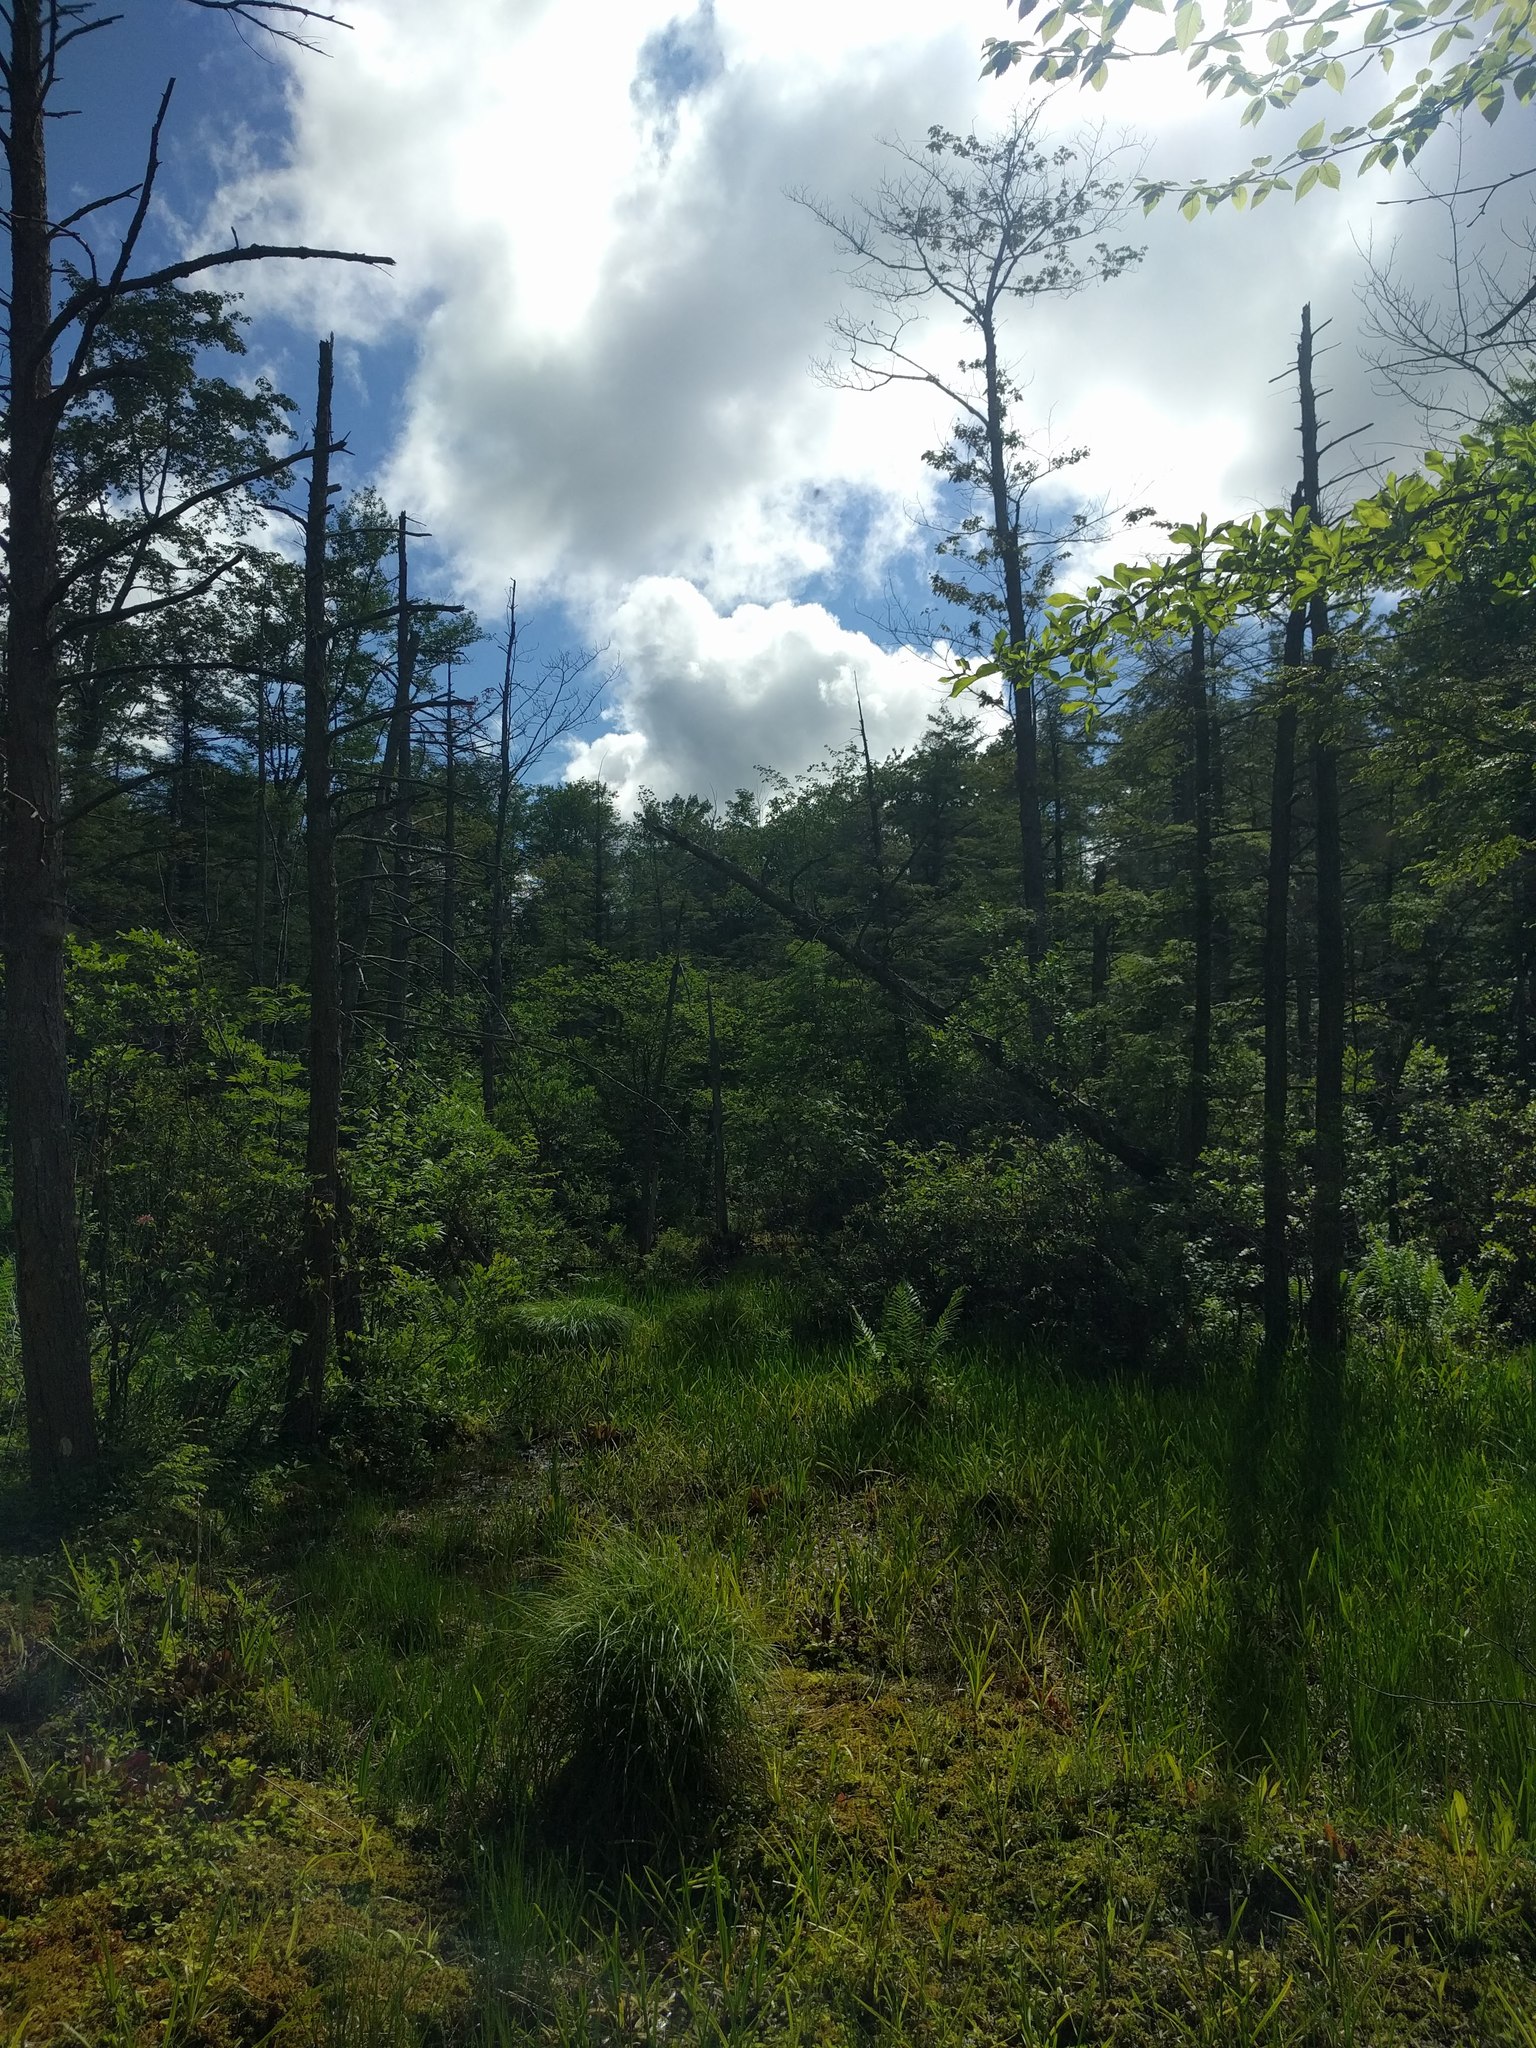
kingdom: Plantae
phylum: Tracheophyta
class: Magnoliopsida
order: Ericales
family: Sarraceniaceae
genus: Sarracenia
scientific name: Sarracenia purpurea
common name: Pitcherplant
